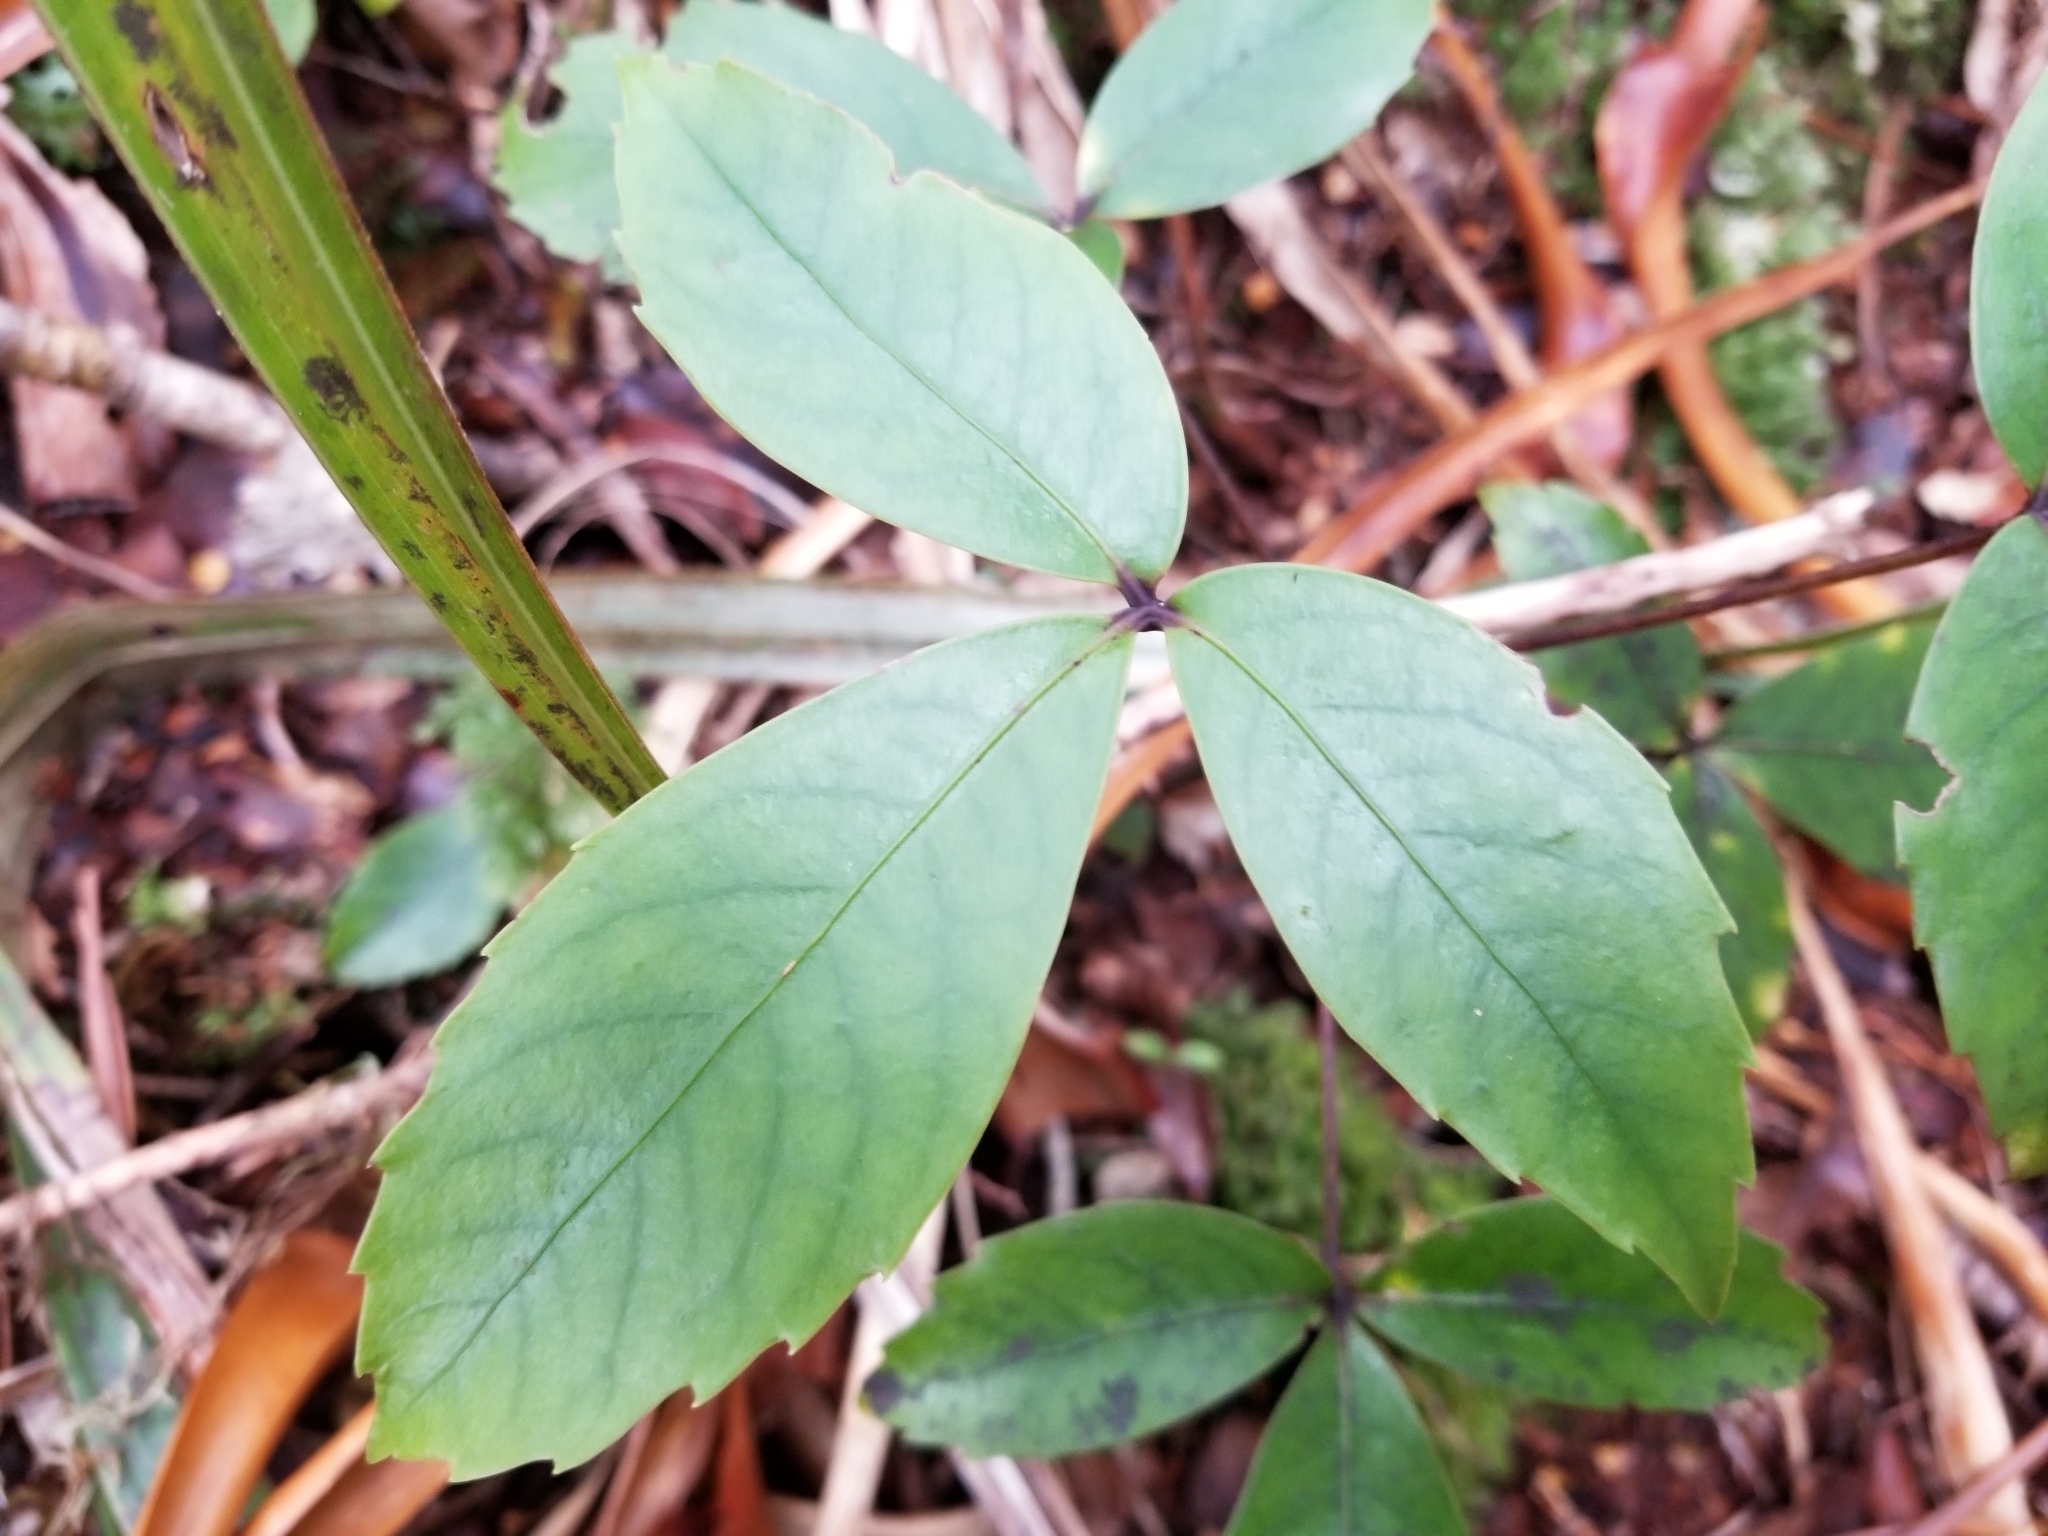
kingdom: Plantae
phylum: Tracheophyta
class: Magnoliopsida
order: Apiales
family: Araliaceae
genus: Neopanax
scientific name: Neopanax colensoi
